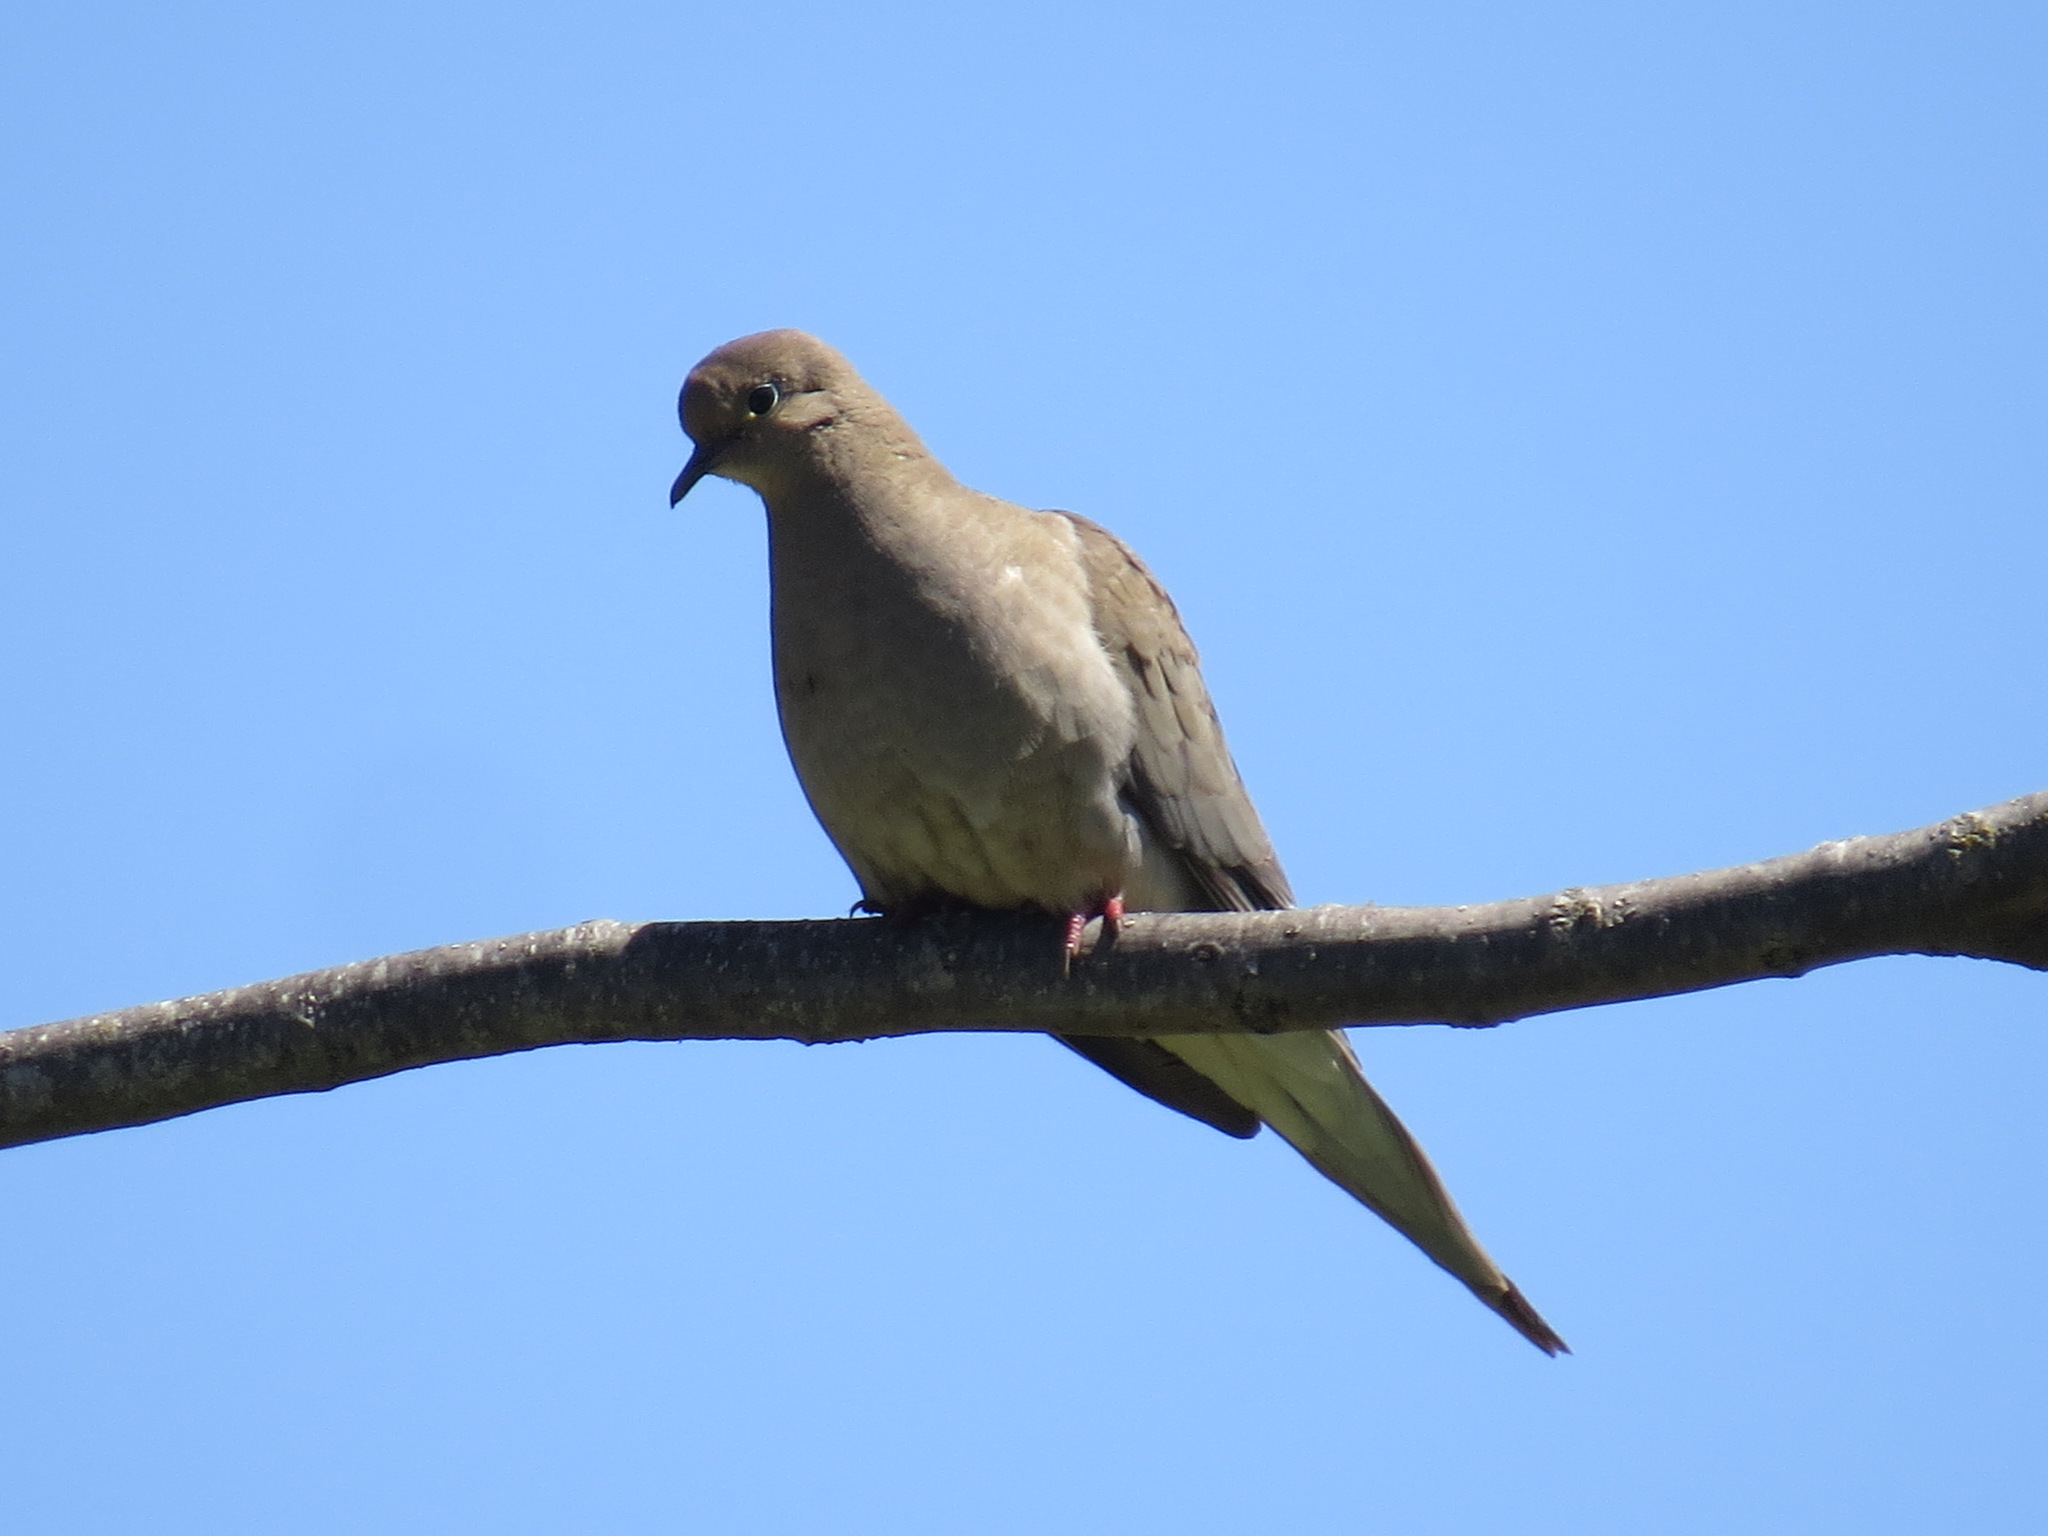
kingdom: Animalia
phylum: Chordata
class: Aves
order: Columbiformes
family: Columbidae
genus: Zenaida
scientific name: Zenaida macroura
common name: Mourning dove
